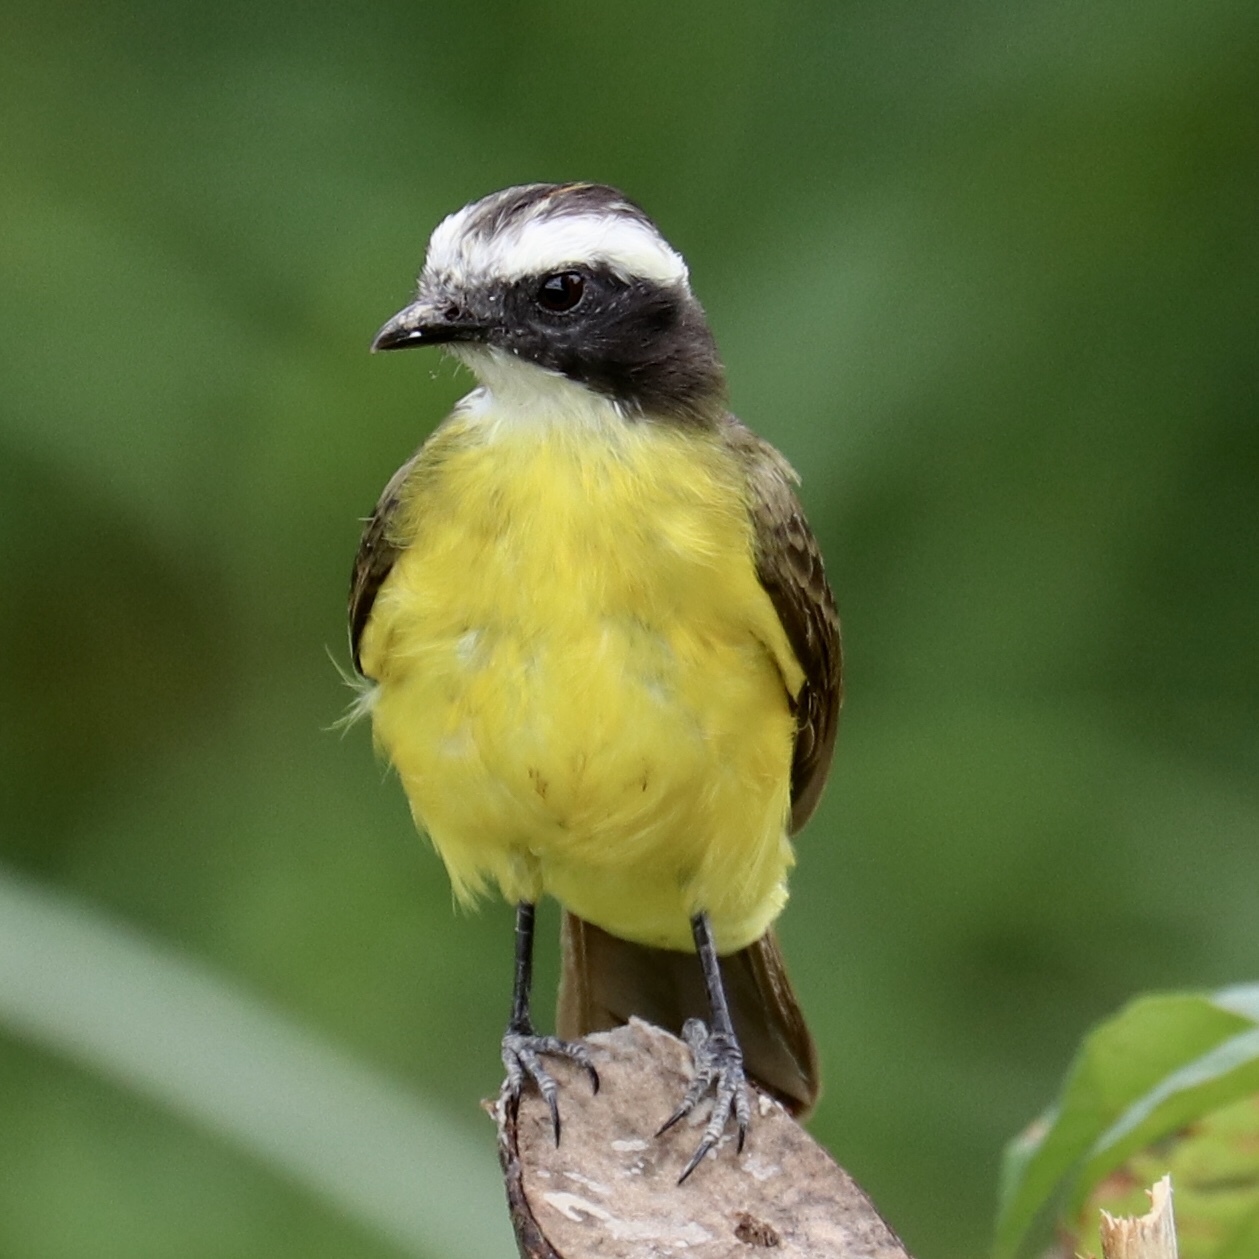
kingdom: Animalia
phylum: Chordata
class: Aves
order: Passeriformes
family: Tyrannidae
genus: Myiozetetes
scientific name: Myiozetetes similis
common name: Social flycatcher
